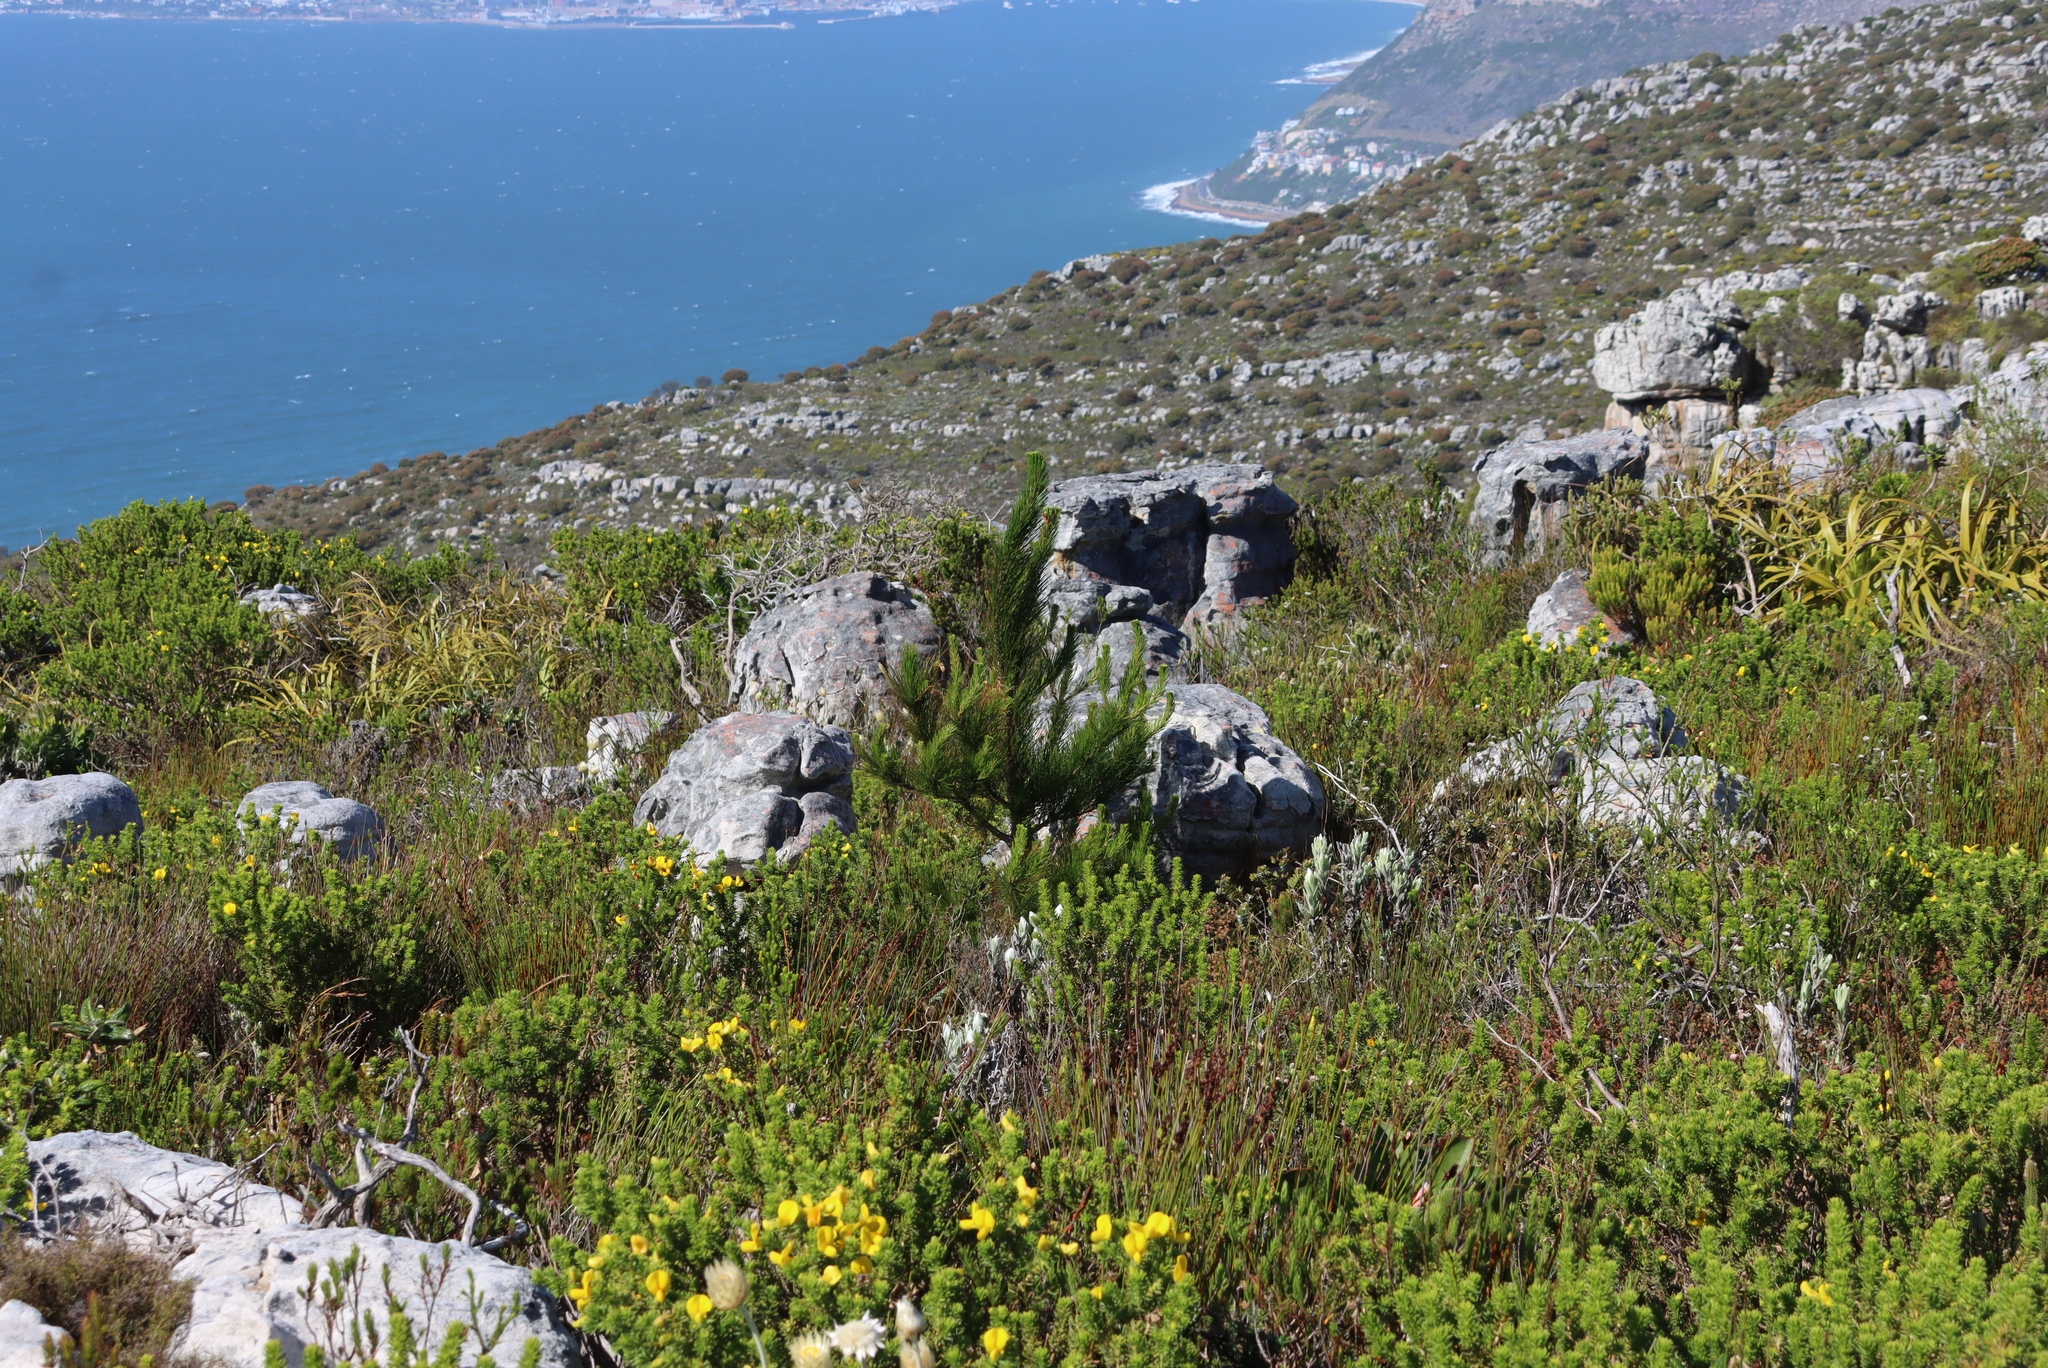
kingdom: Plantae
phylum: Tracheophyta
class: Pinopsida
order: Pinales
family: Pinaceae
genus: Pinus
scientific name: Pinus radiata
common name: Monterey pine
